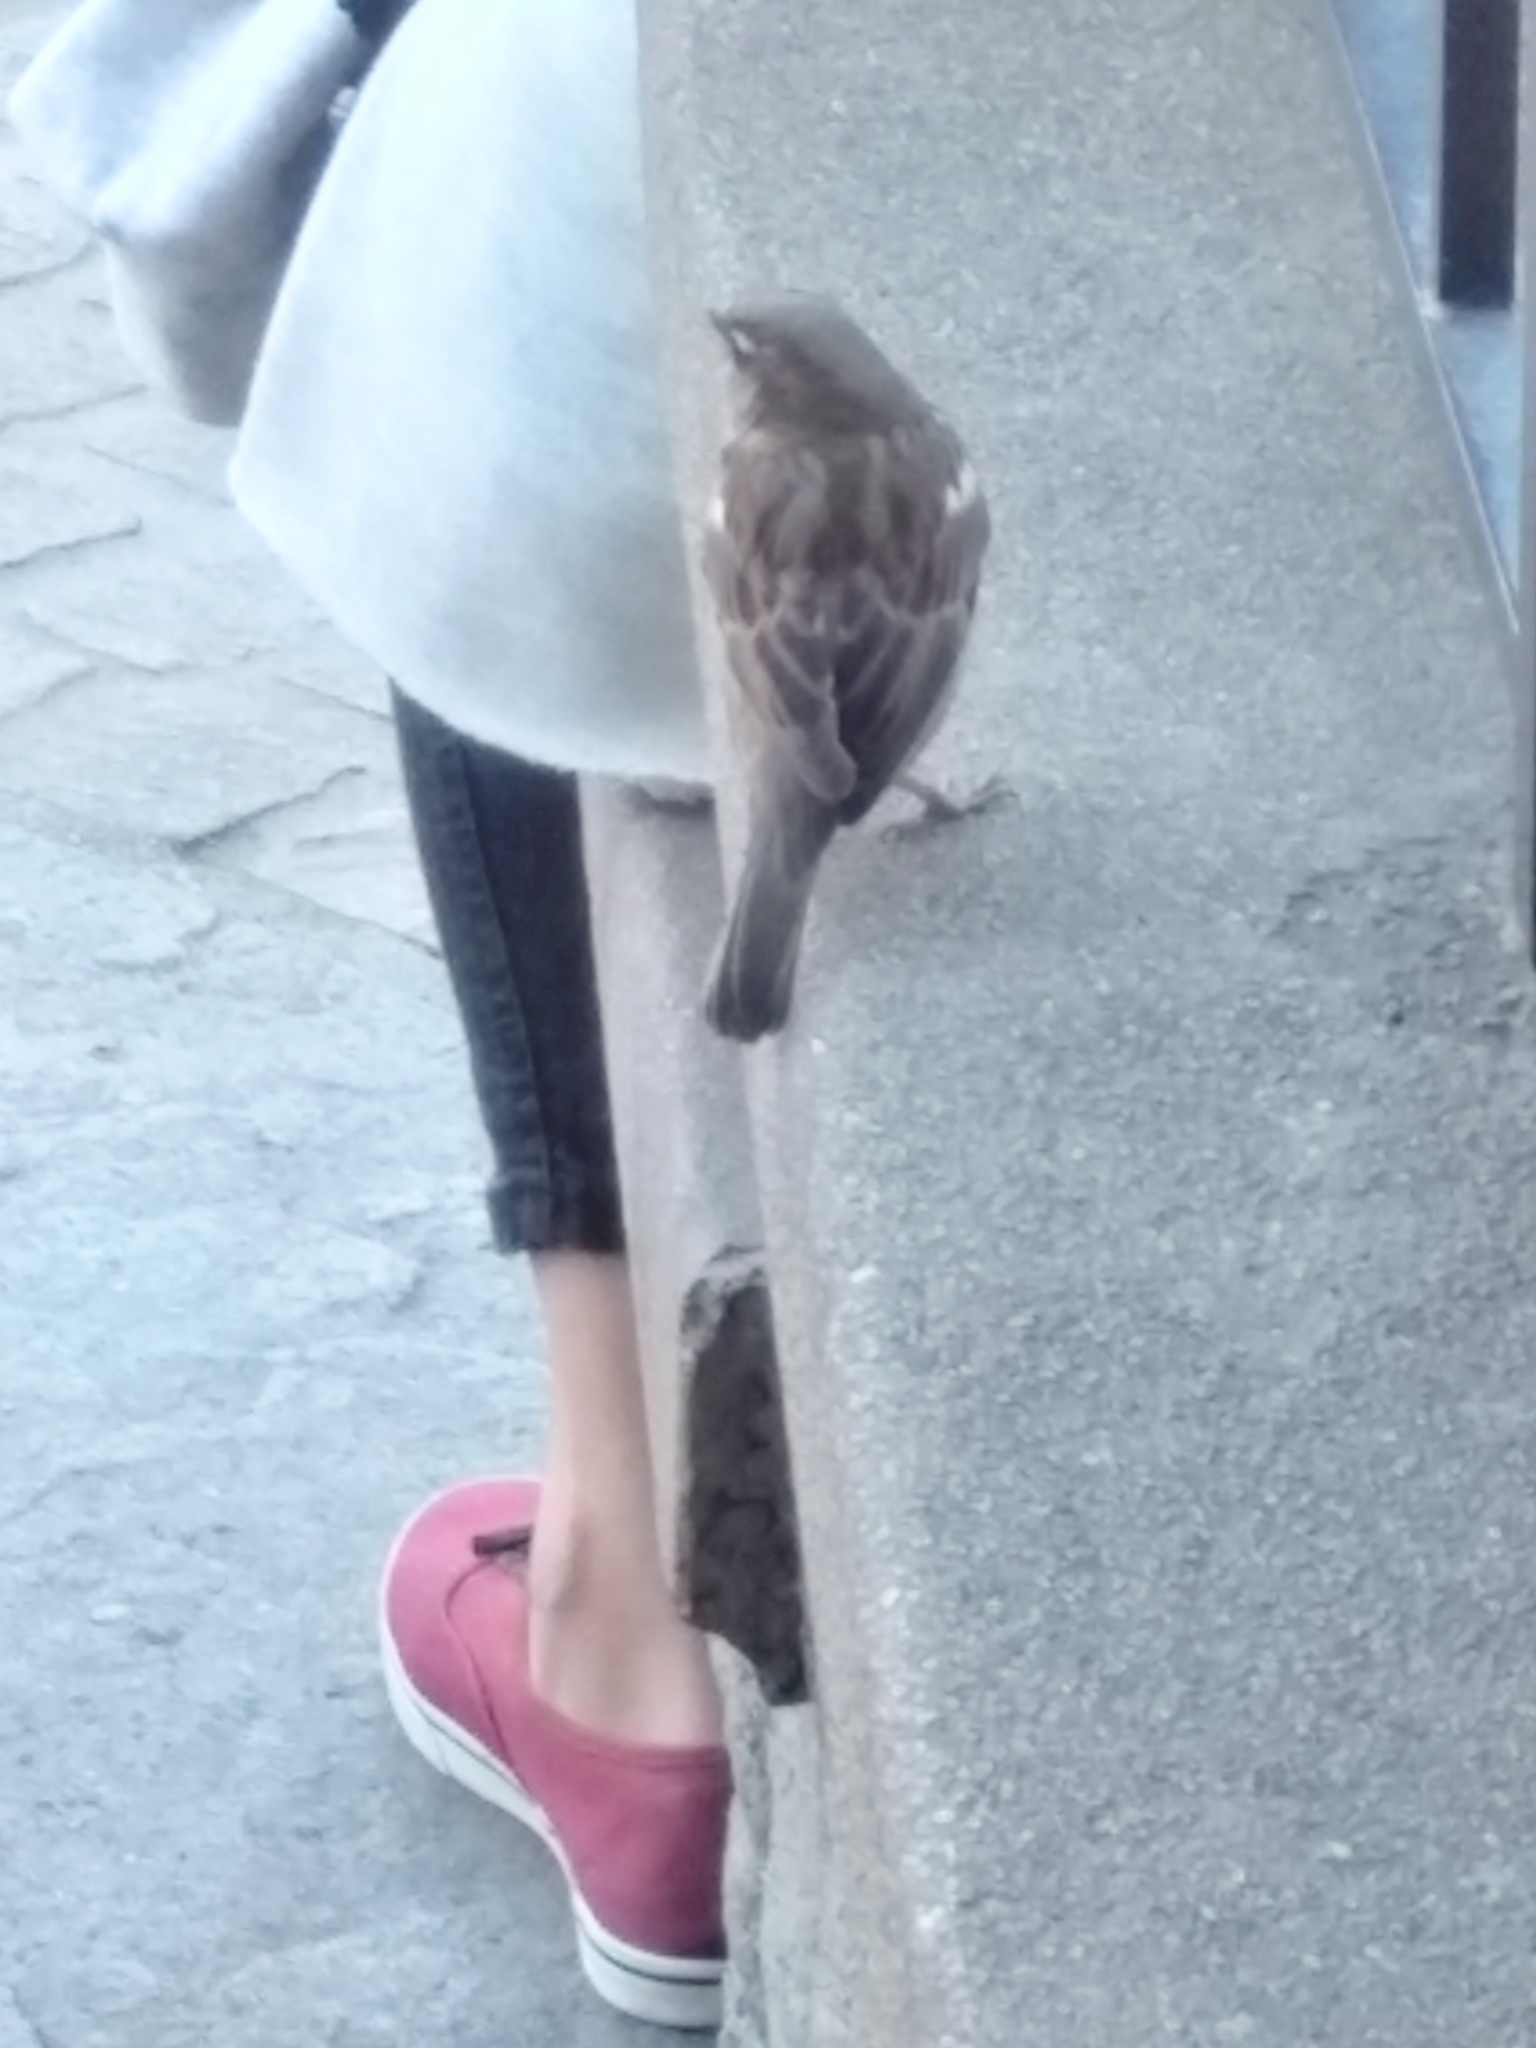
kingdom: Animalia
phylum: Chordata
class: Aves
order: Passeriformes
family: Passeridae
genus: Passer
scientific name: Passer domesticus
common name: House sparrow
